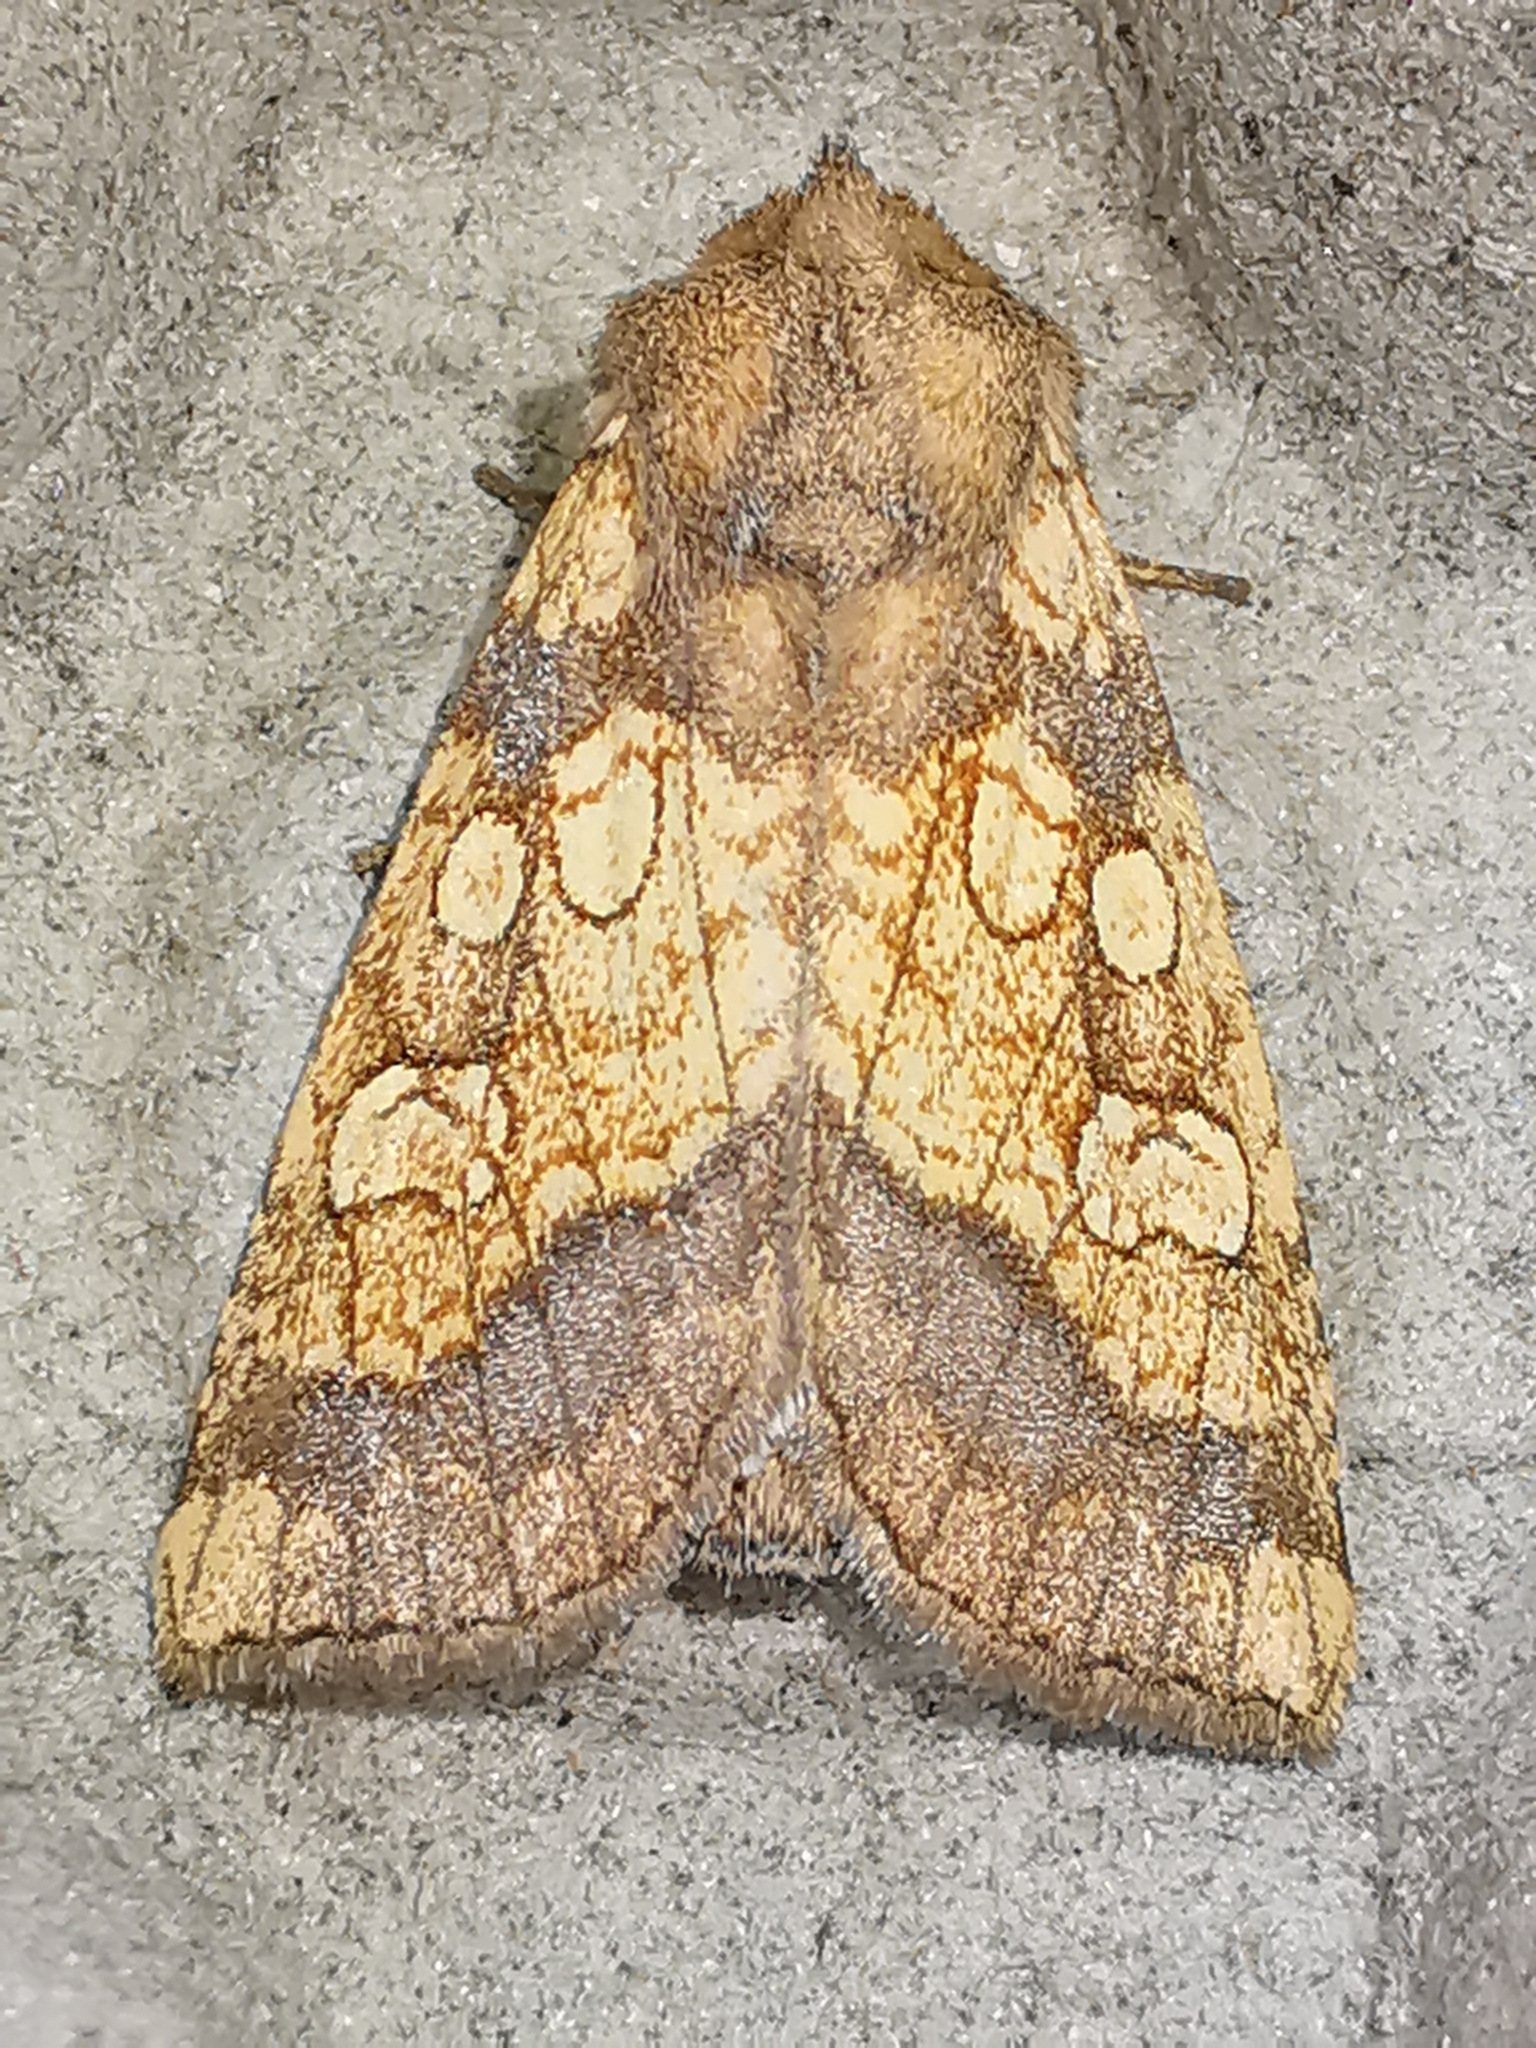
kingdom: Animalia
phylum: Arthropoda
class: Insecta
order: Lepidoptera
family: Noctuidae
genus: Gortyna
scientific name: Gortyna flavago
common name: Frosted orange
